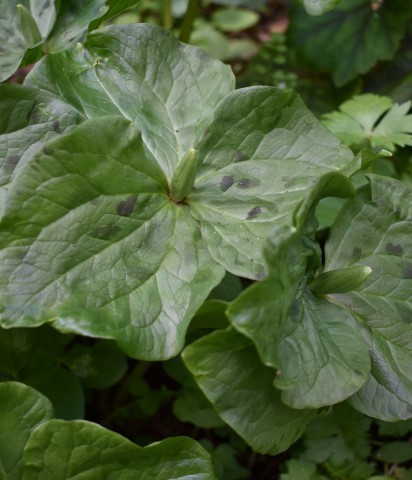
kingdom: Plantae
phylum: Tracheophyta
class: Liliopsida
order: Liliales
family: Melanthiaceae
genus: Trillium
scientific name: Trillium albidum
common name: Freeman's trillium
